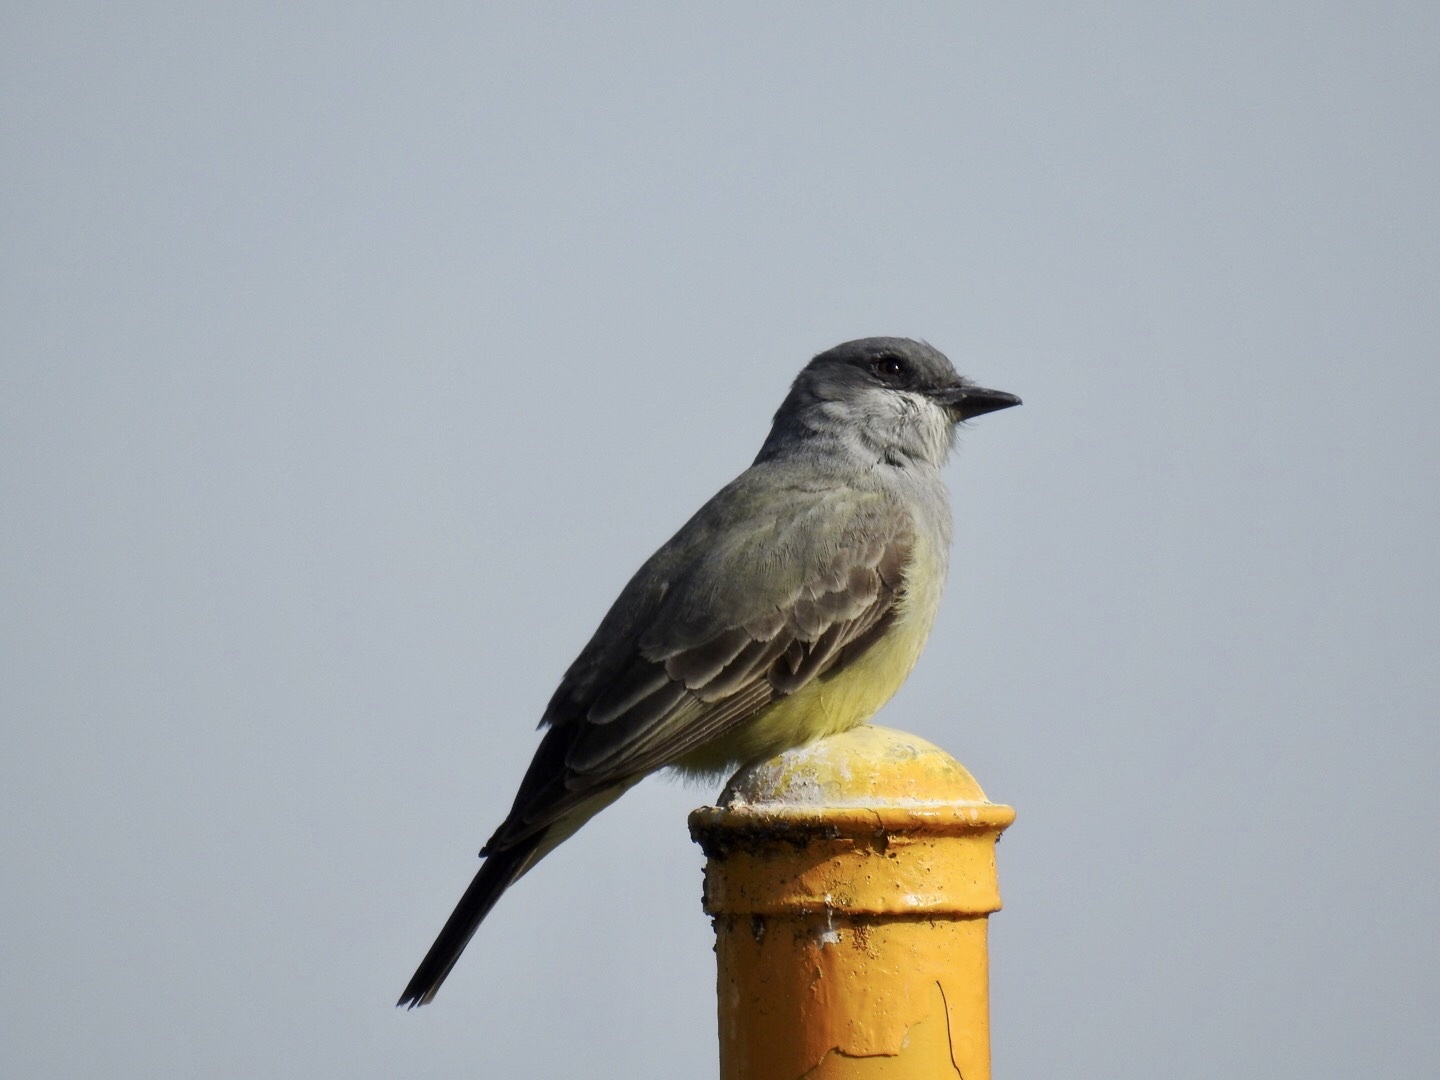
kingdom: Animalia
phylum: Chordata
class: Aves
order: Passeriformes
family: Tyrannidae
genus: Tyrannus
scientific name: Tyrannus vociferans
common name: Cassin's kingbird
